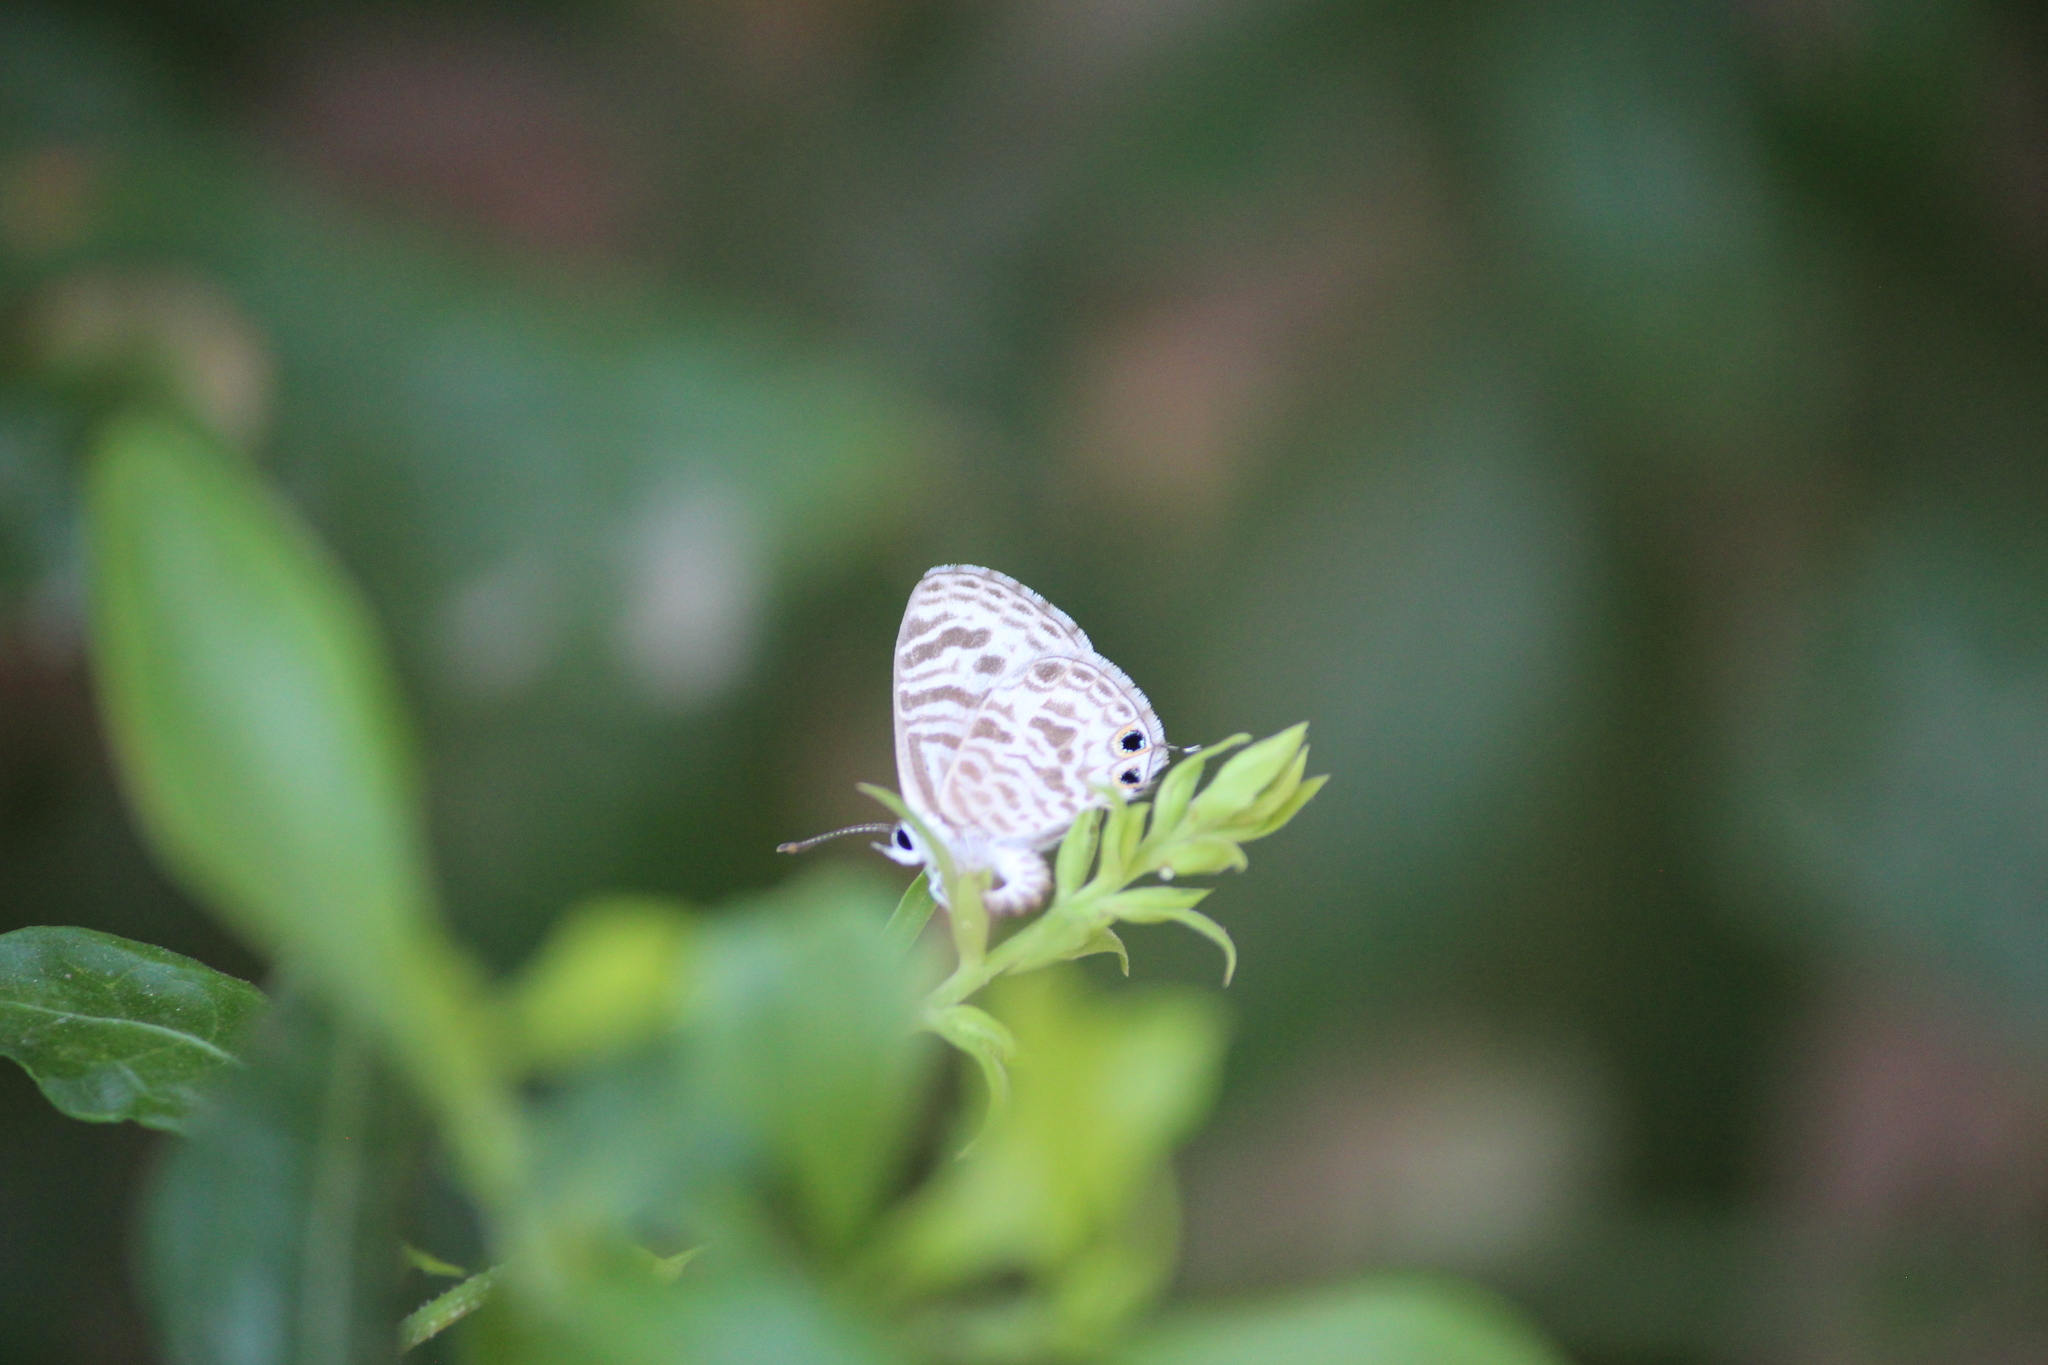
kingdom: Animalia
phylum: Arthropoda
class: Insecta
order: Lepidoptera
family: Lycaenidae
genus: Leptotes
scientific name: Leptotes plinius
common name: Zebra blue
